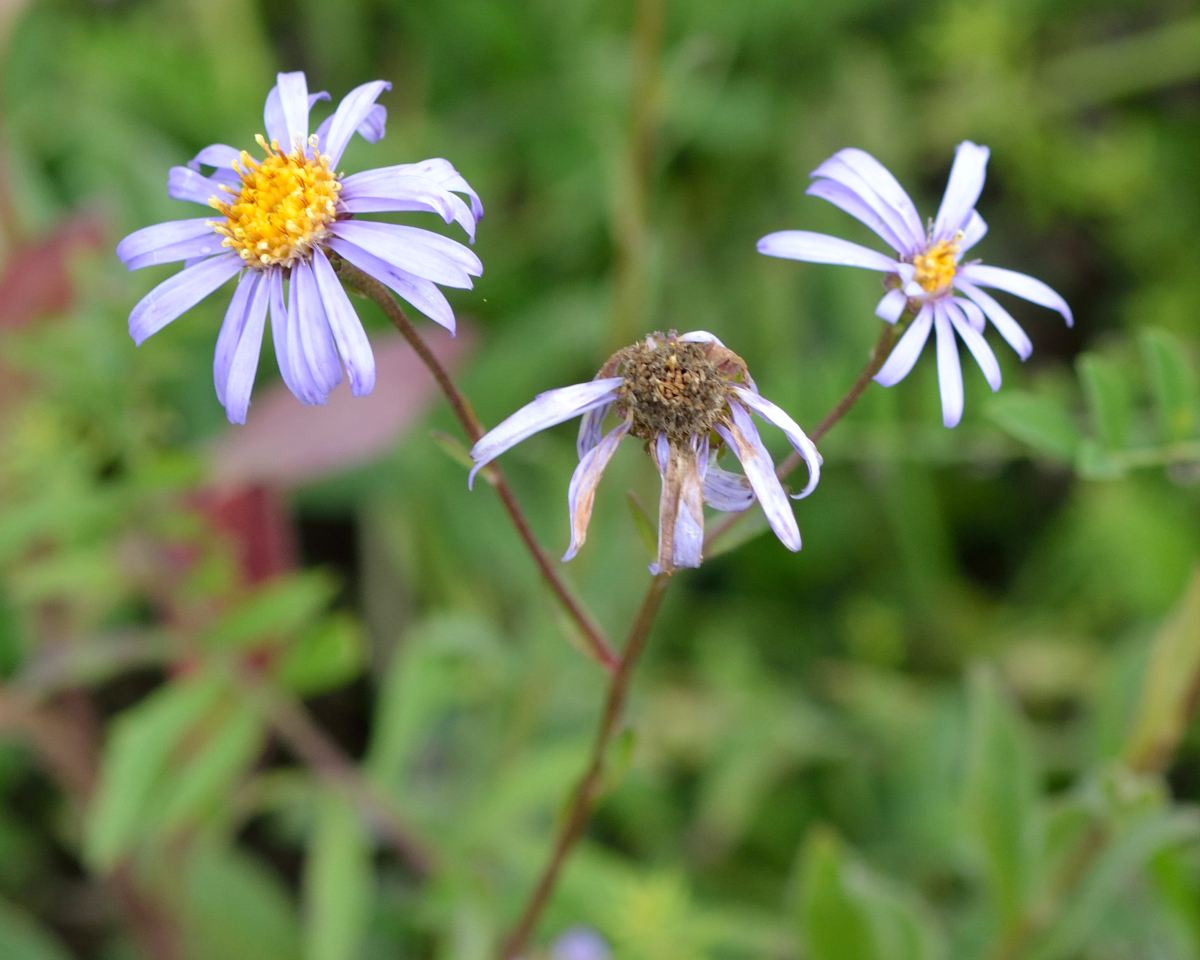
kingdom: Plantae
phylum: Tracheophyta
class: Magnoliopsida
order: Asterales
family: Asteraceae
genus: Aster
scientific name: Aster amellus
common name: European michaelmas daisy
